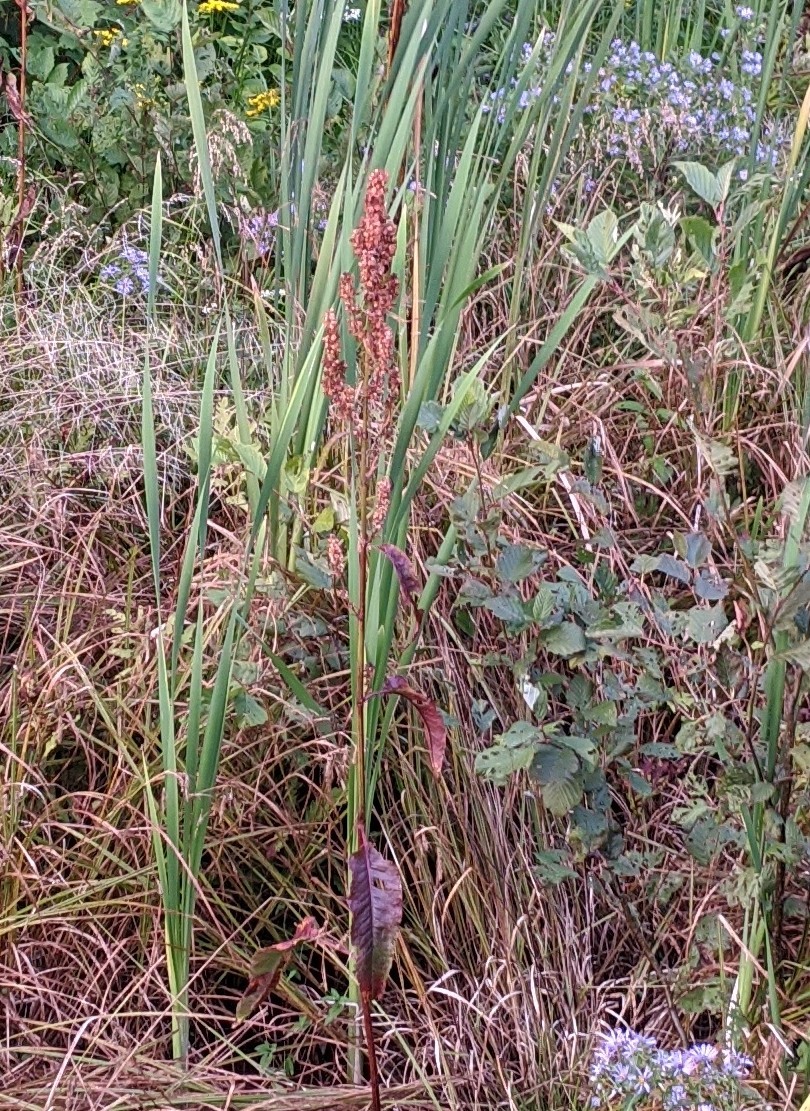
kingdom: Plantae
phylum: Tracheophyta
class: Magnoliopsida
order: Caryophyllales
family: Polygonaceae
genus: Rumex
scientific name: Rumex crispus
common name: Curled dock
